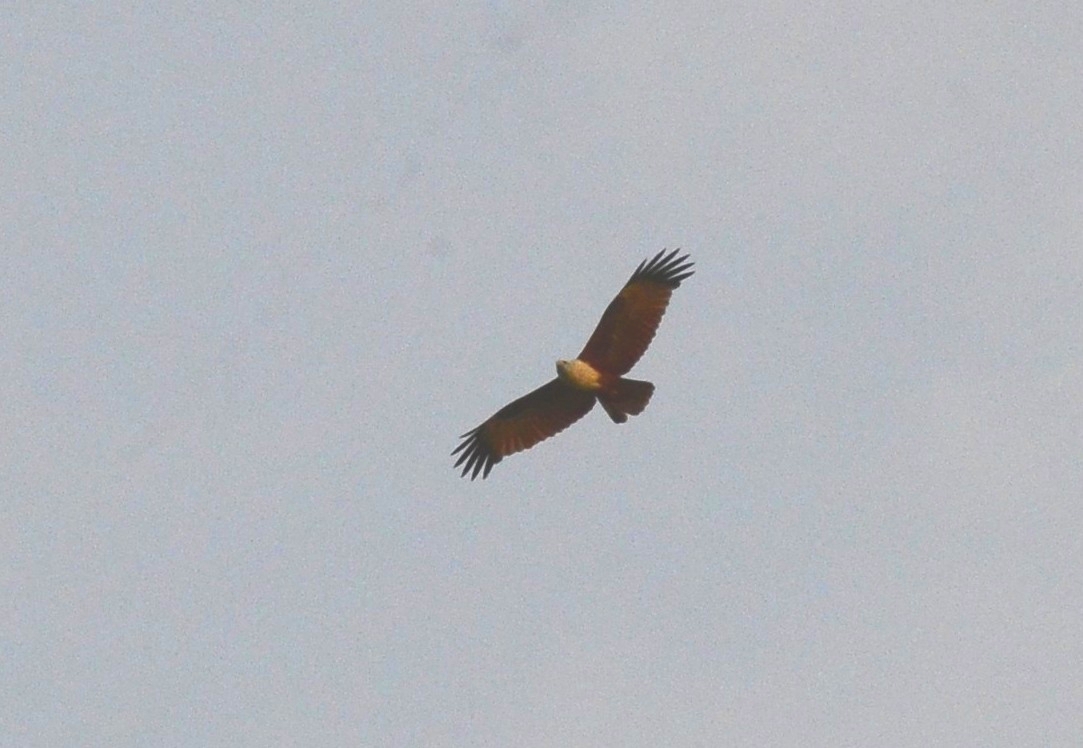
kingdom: Animalia
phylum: Chordata
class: Aves
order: Accipitriformes
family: Accipitridae
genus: Haliastur
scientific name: Haliastur indus
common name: Brahminy kite
